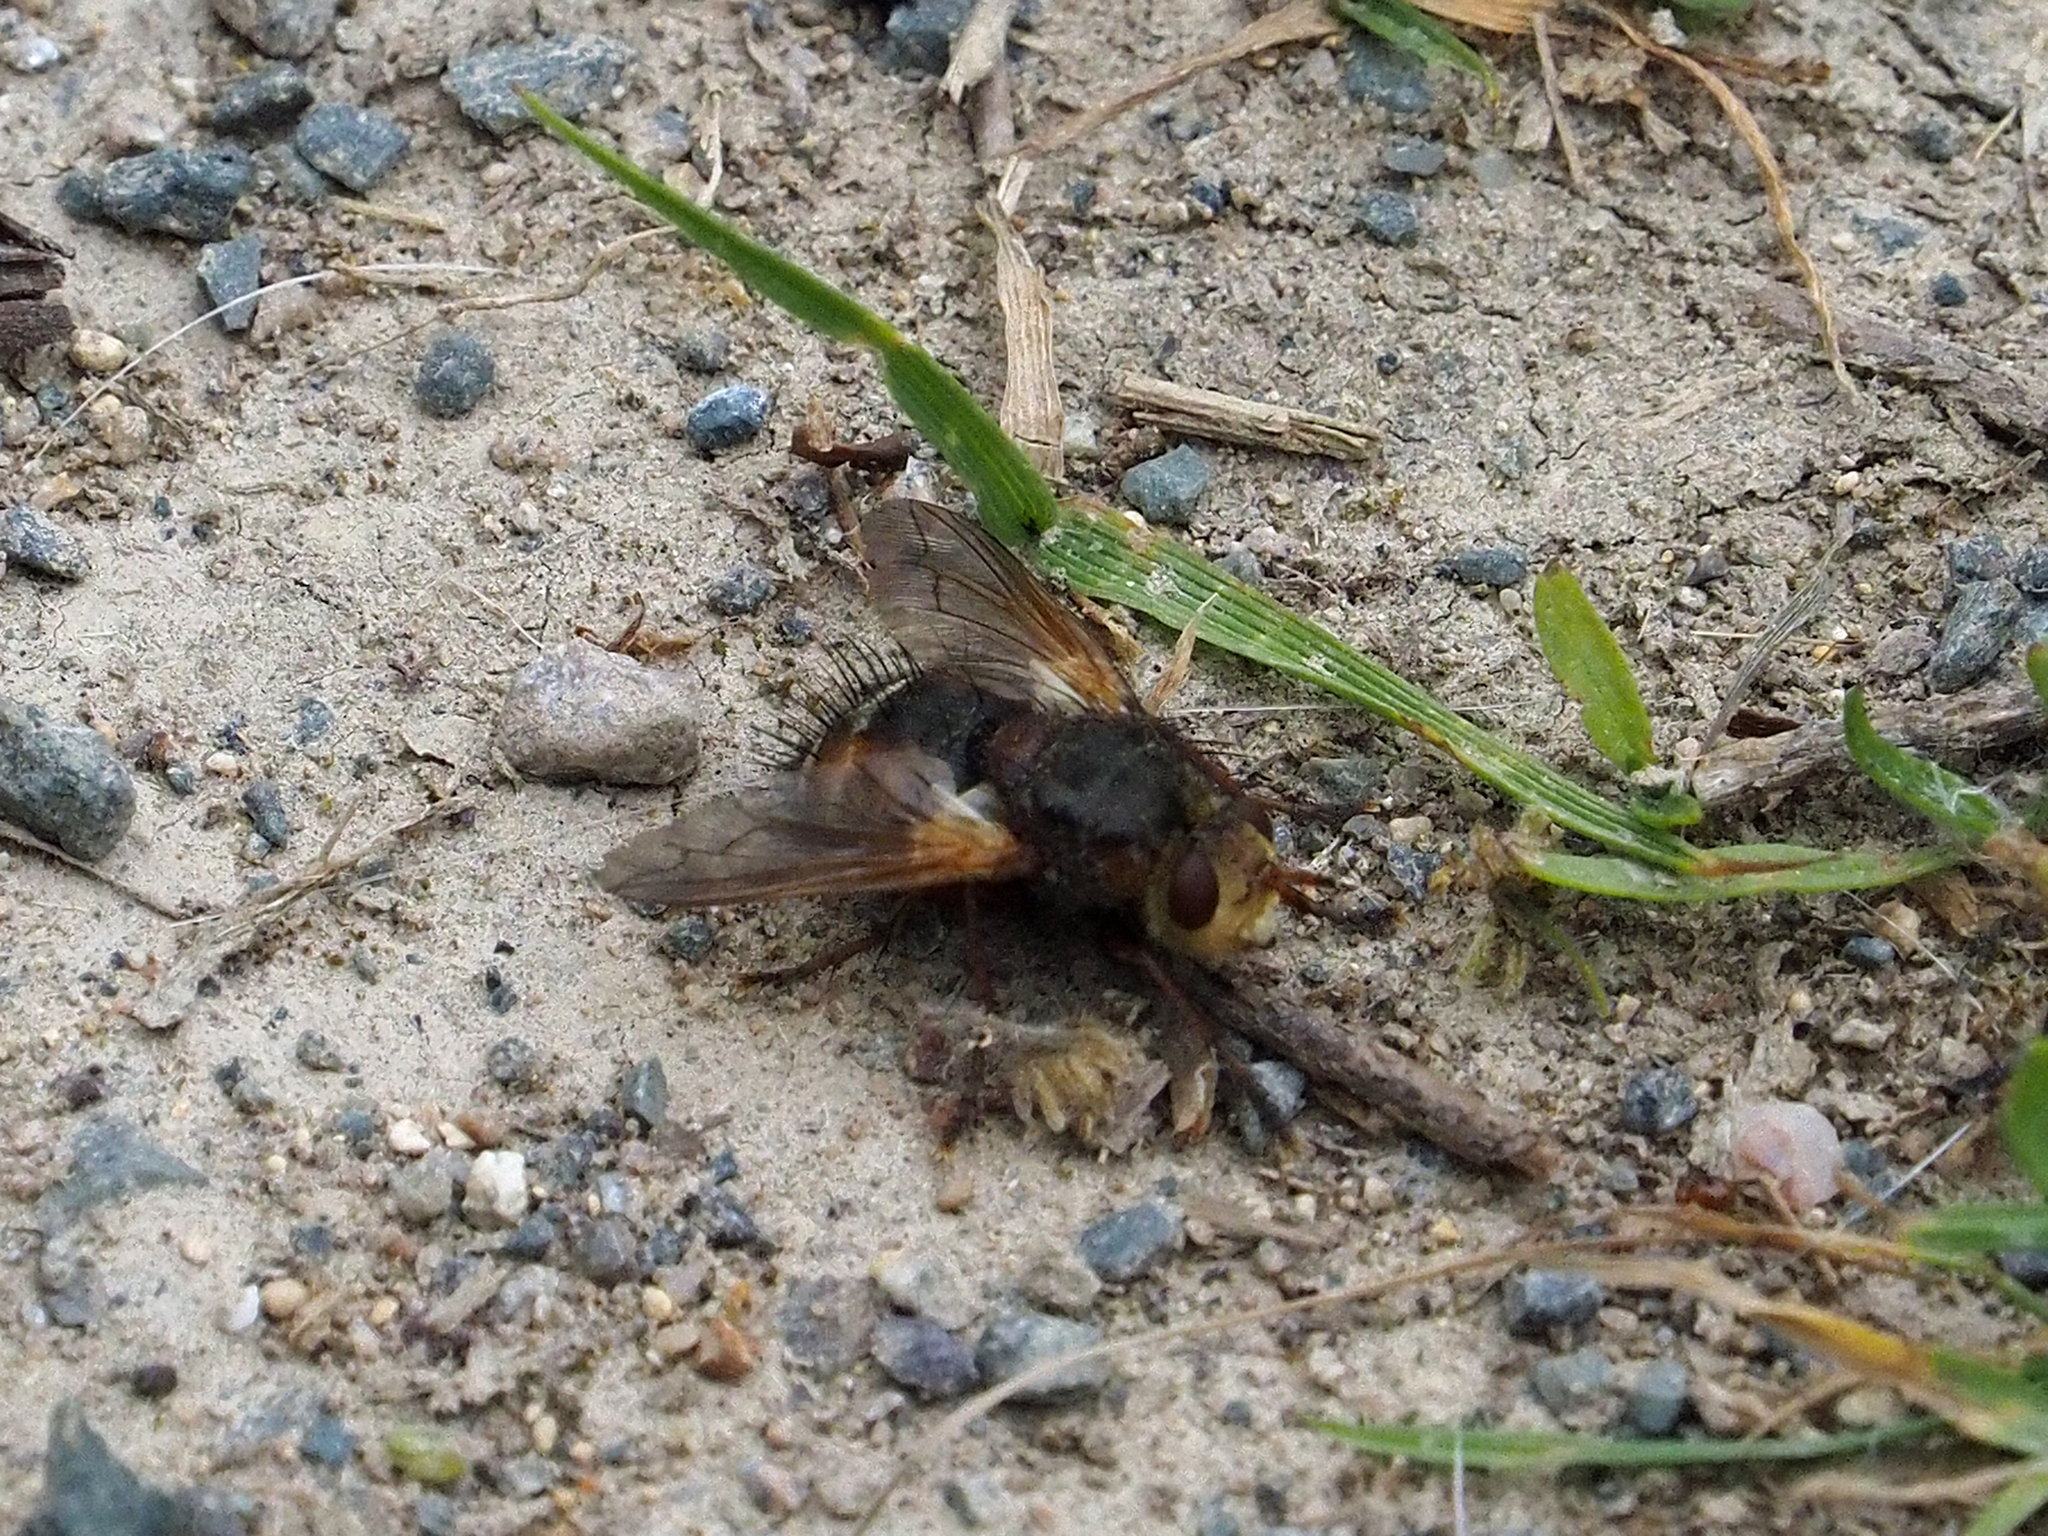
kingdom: Animalia
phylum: Arthropoda
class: Insecta
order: Diptera
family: Tachinidae
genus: Tachina
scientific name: Tachina fera
